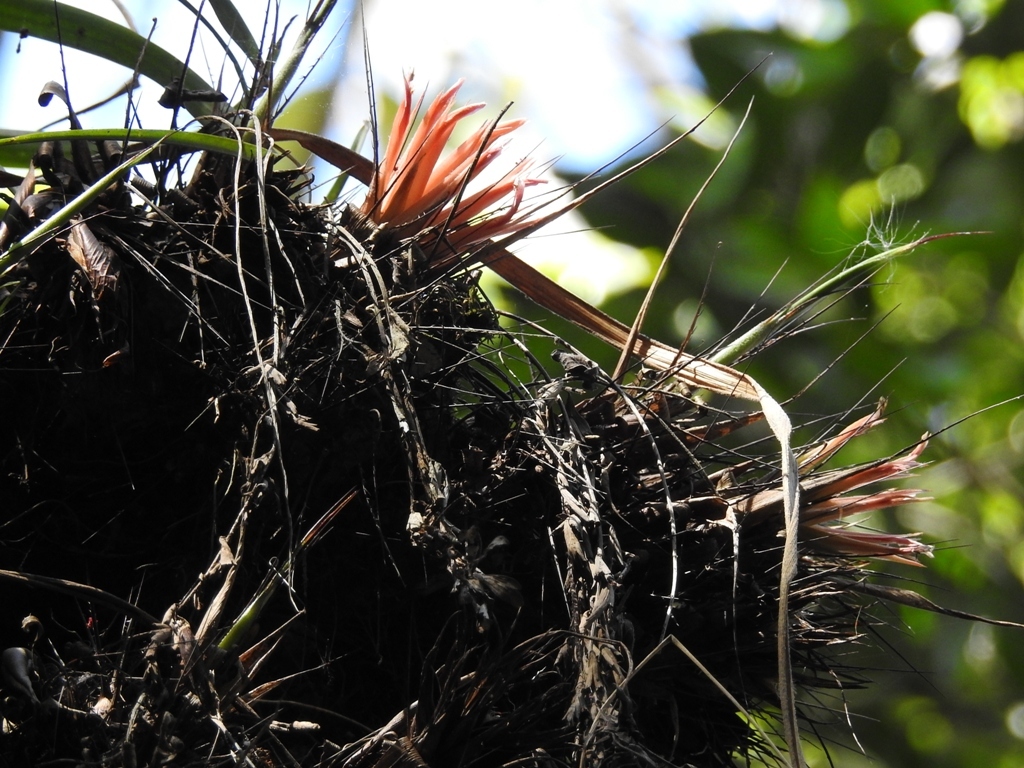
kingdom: Plantae
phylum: Tracheophyta
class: Liliopsida
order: Poales
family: Bromeliaceae
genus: Pitcairnia
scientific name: Pitcairnia heterophylla
